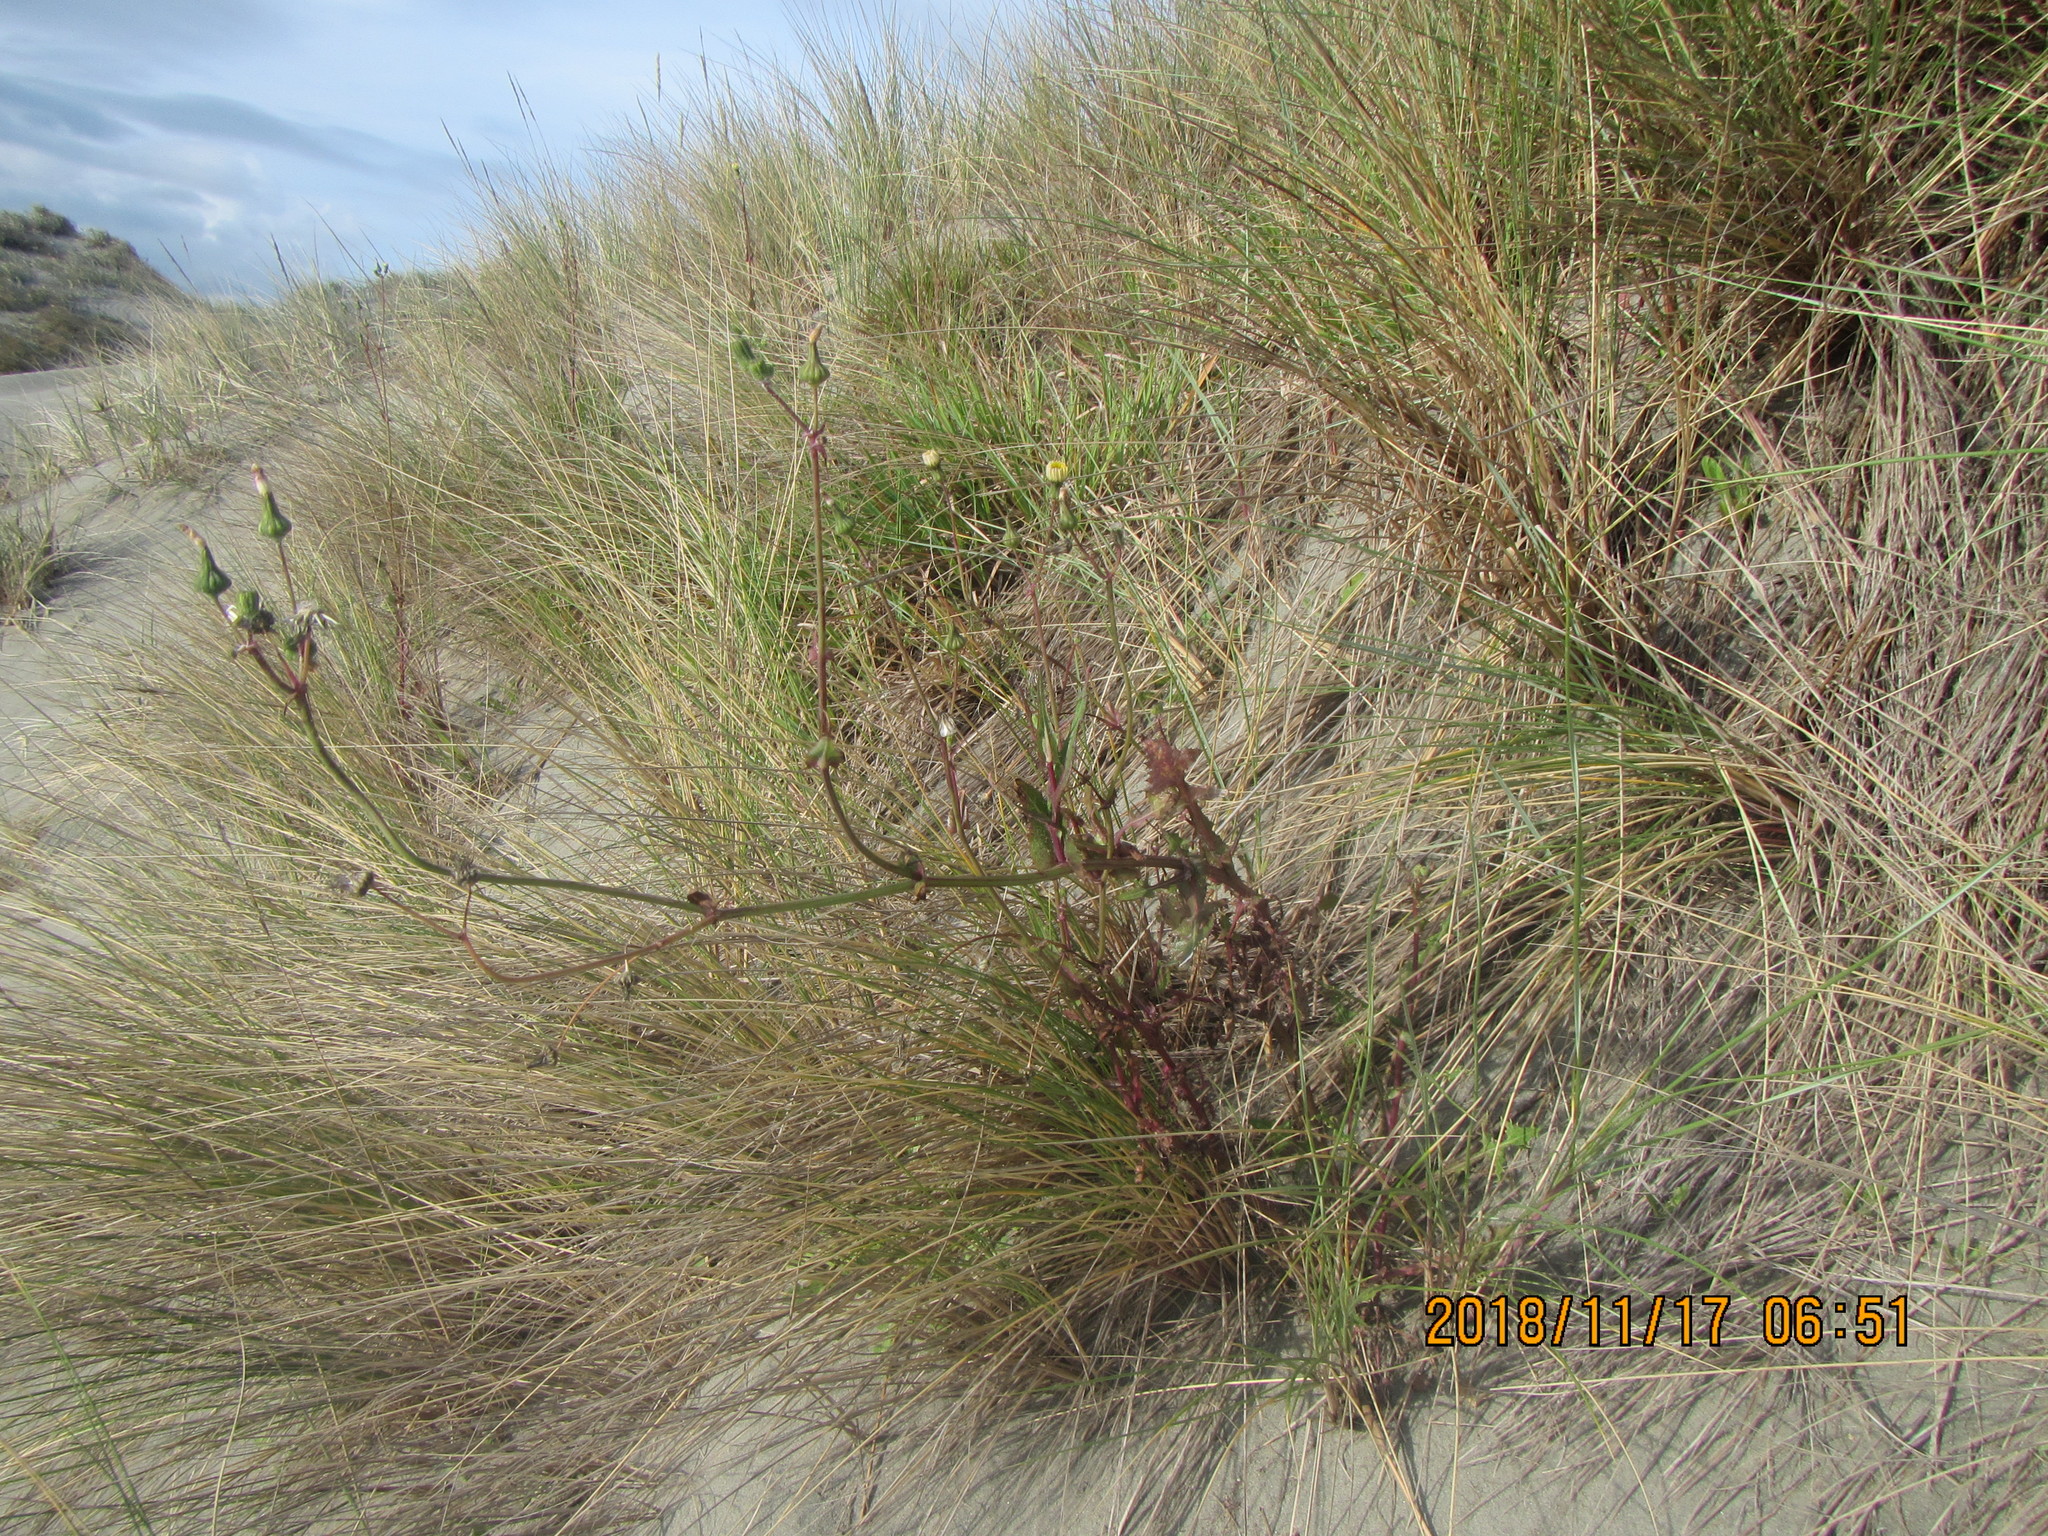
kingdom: Plantae
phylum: Tracheophyta
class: Magnoliopsida
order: Asterales
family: Asteraceae
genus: Sonchus
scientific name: Sonchus oleraceus
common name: Common sowthistle
